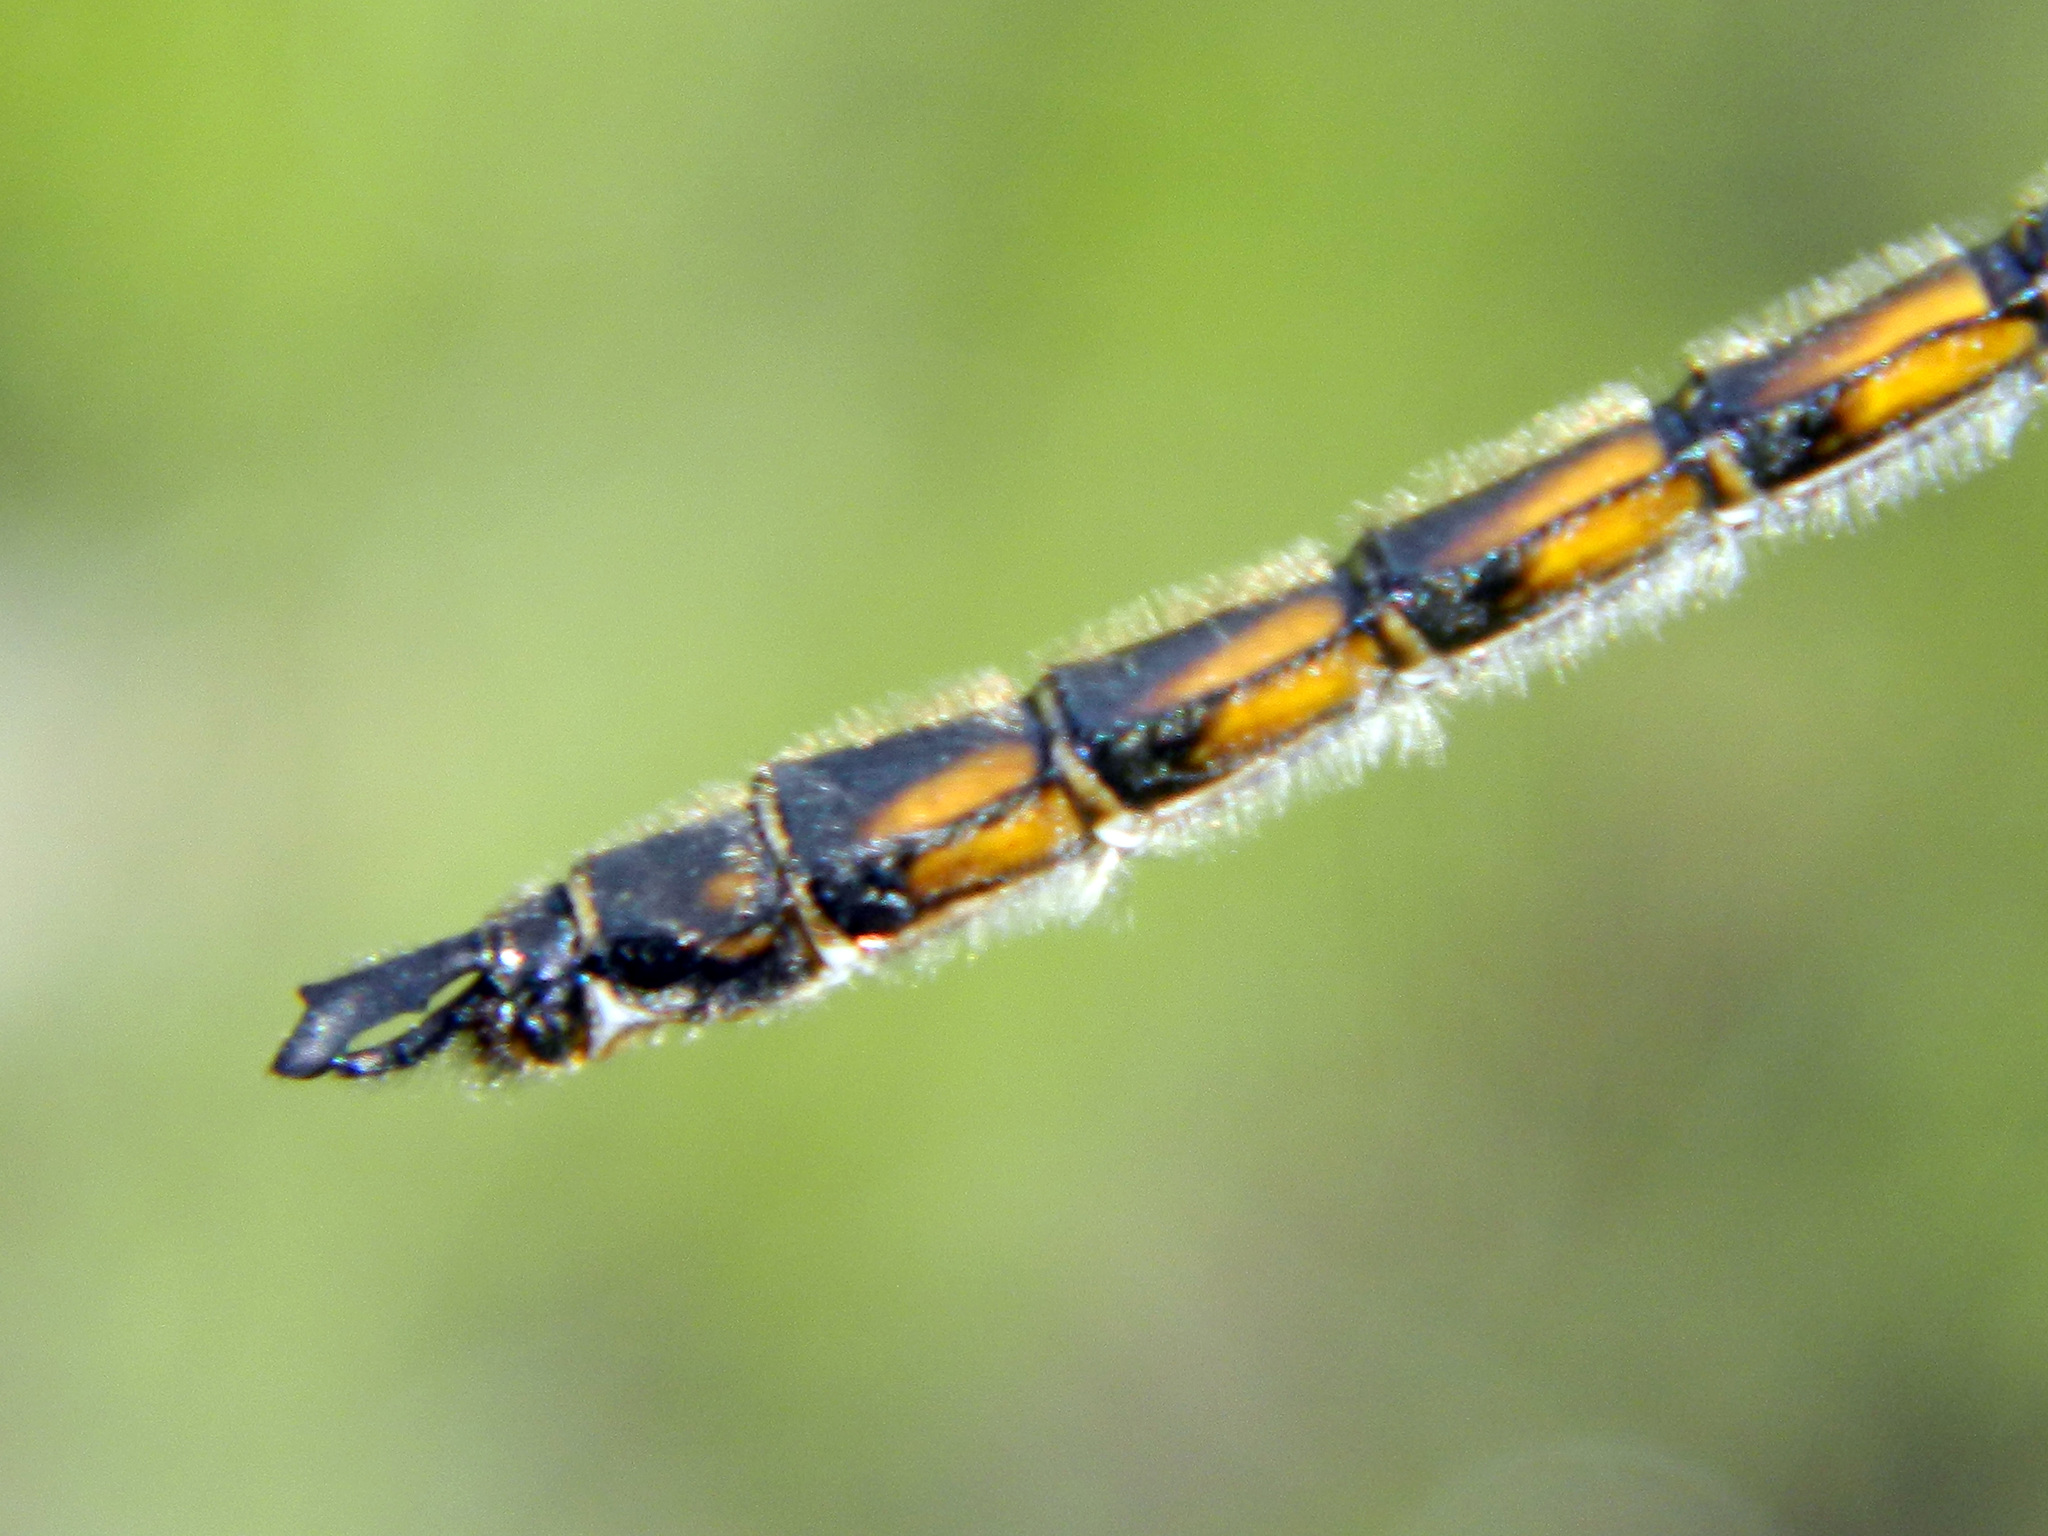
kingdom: Animalia
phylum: Arthropoda
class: Insecta
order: Odonata
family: Corduliidae
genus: Epitheca
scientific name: Epitheca canis
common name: Beaverpond baskettail
